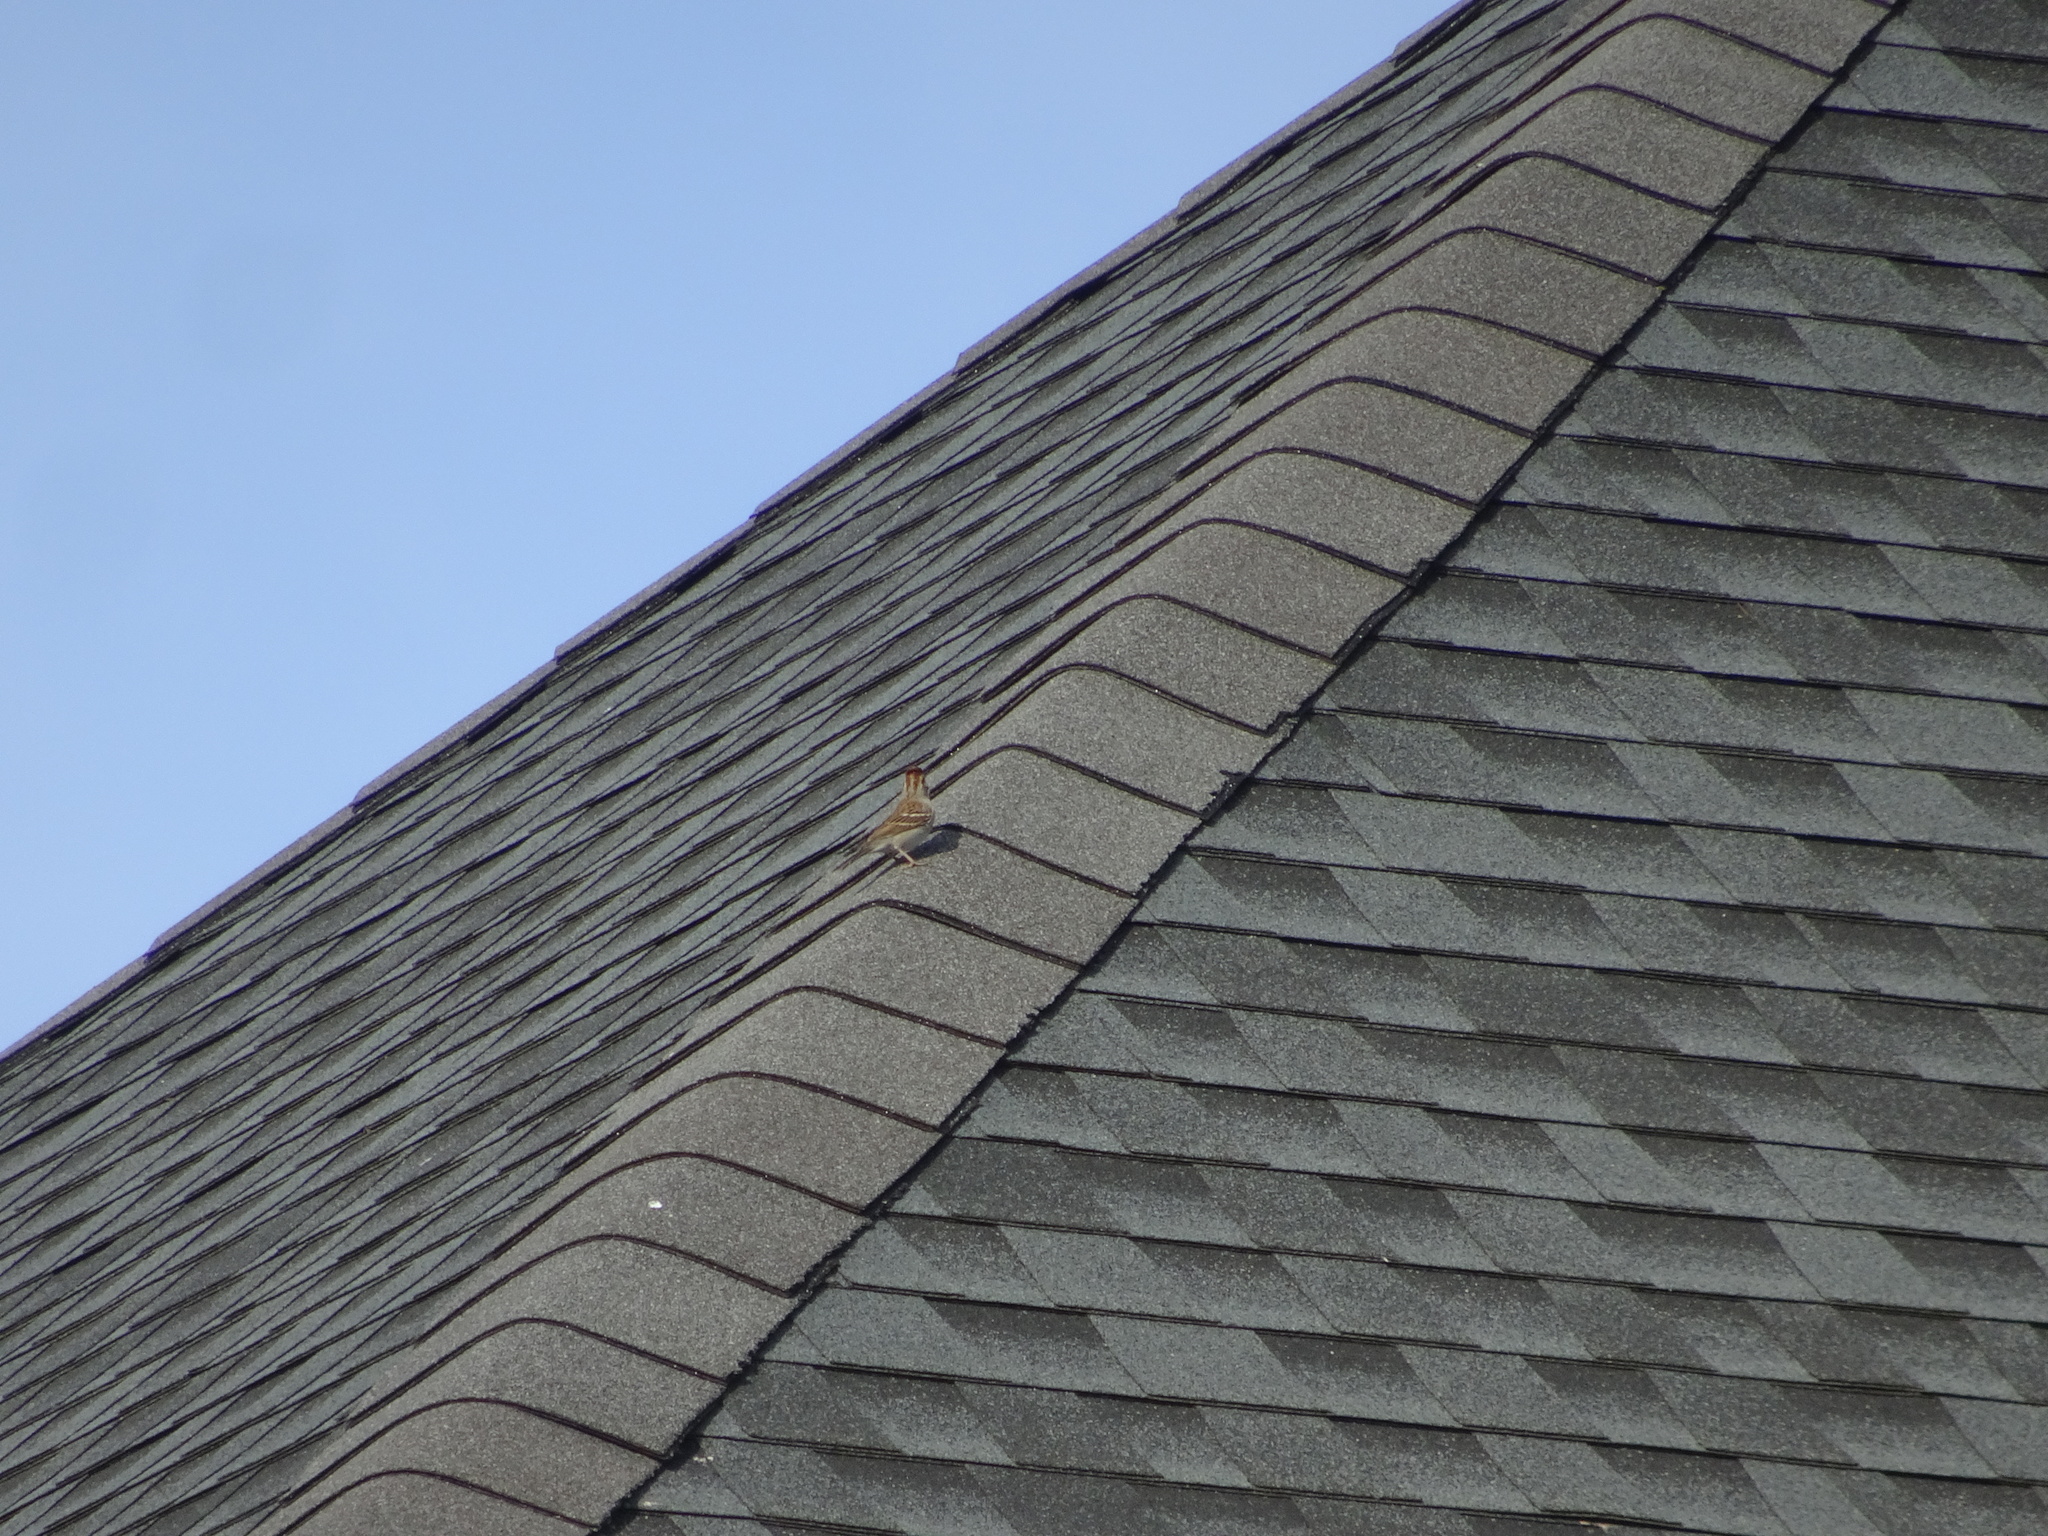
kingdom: Animalia
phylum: Chordata
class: Aves
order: Passeriformes
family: Passerellidae
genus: Spizella
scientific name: Spizella passerina
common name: Chipping sparrow
